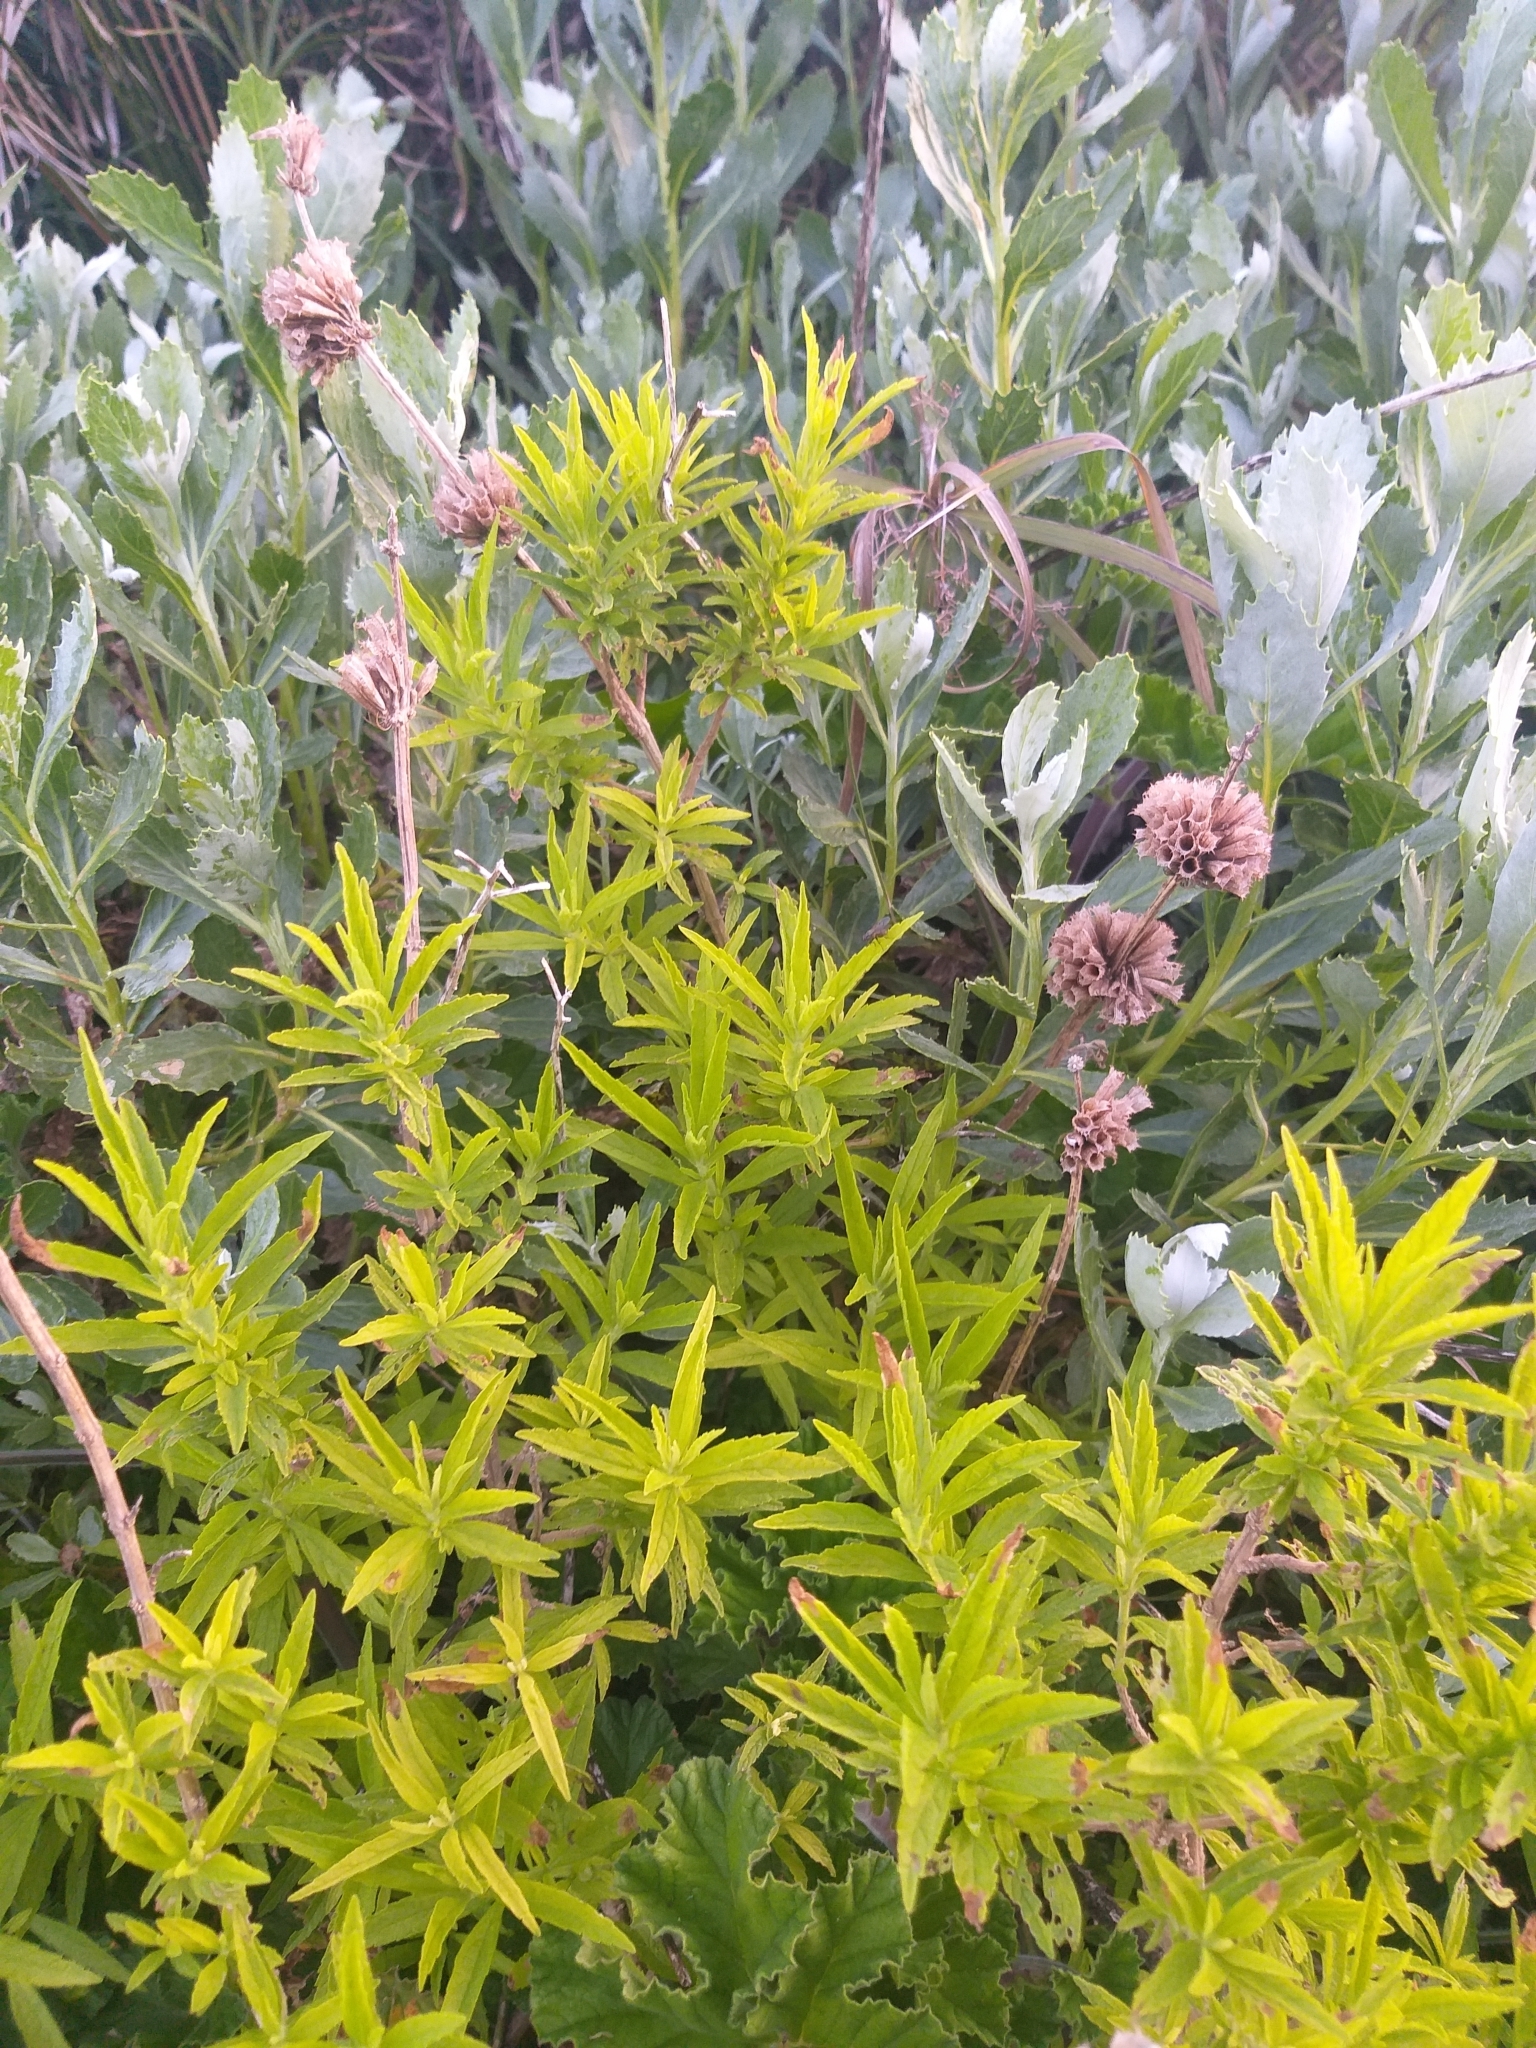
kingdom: Plantae
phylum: Tracheophyta
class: Magnoliopsida
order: Lamiales
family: Lamiaceae
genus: Leonotis
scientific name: Leonotis leonurus
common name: Lion's ear
